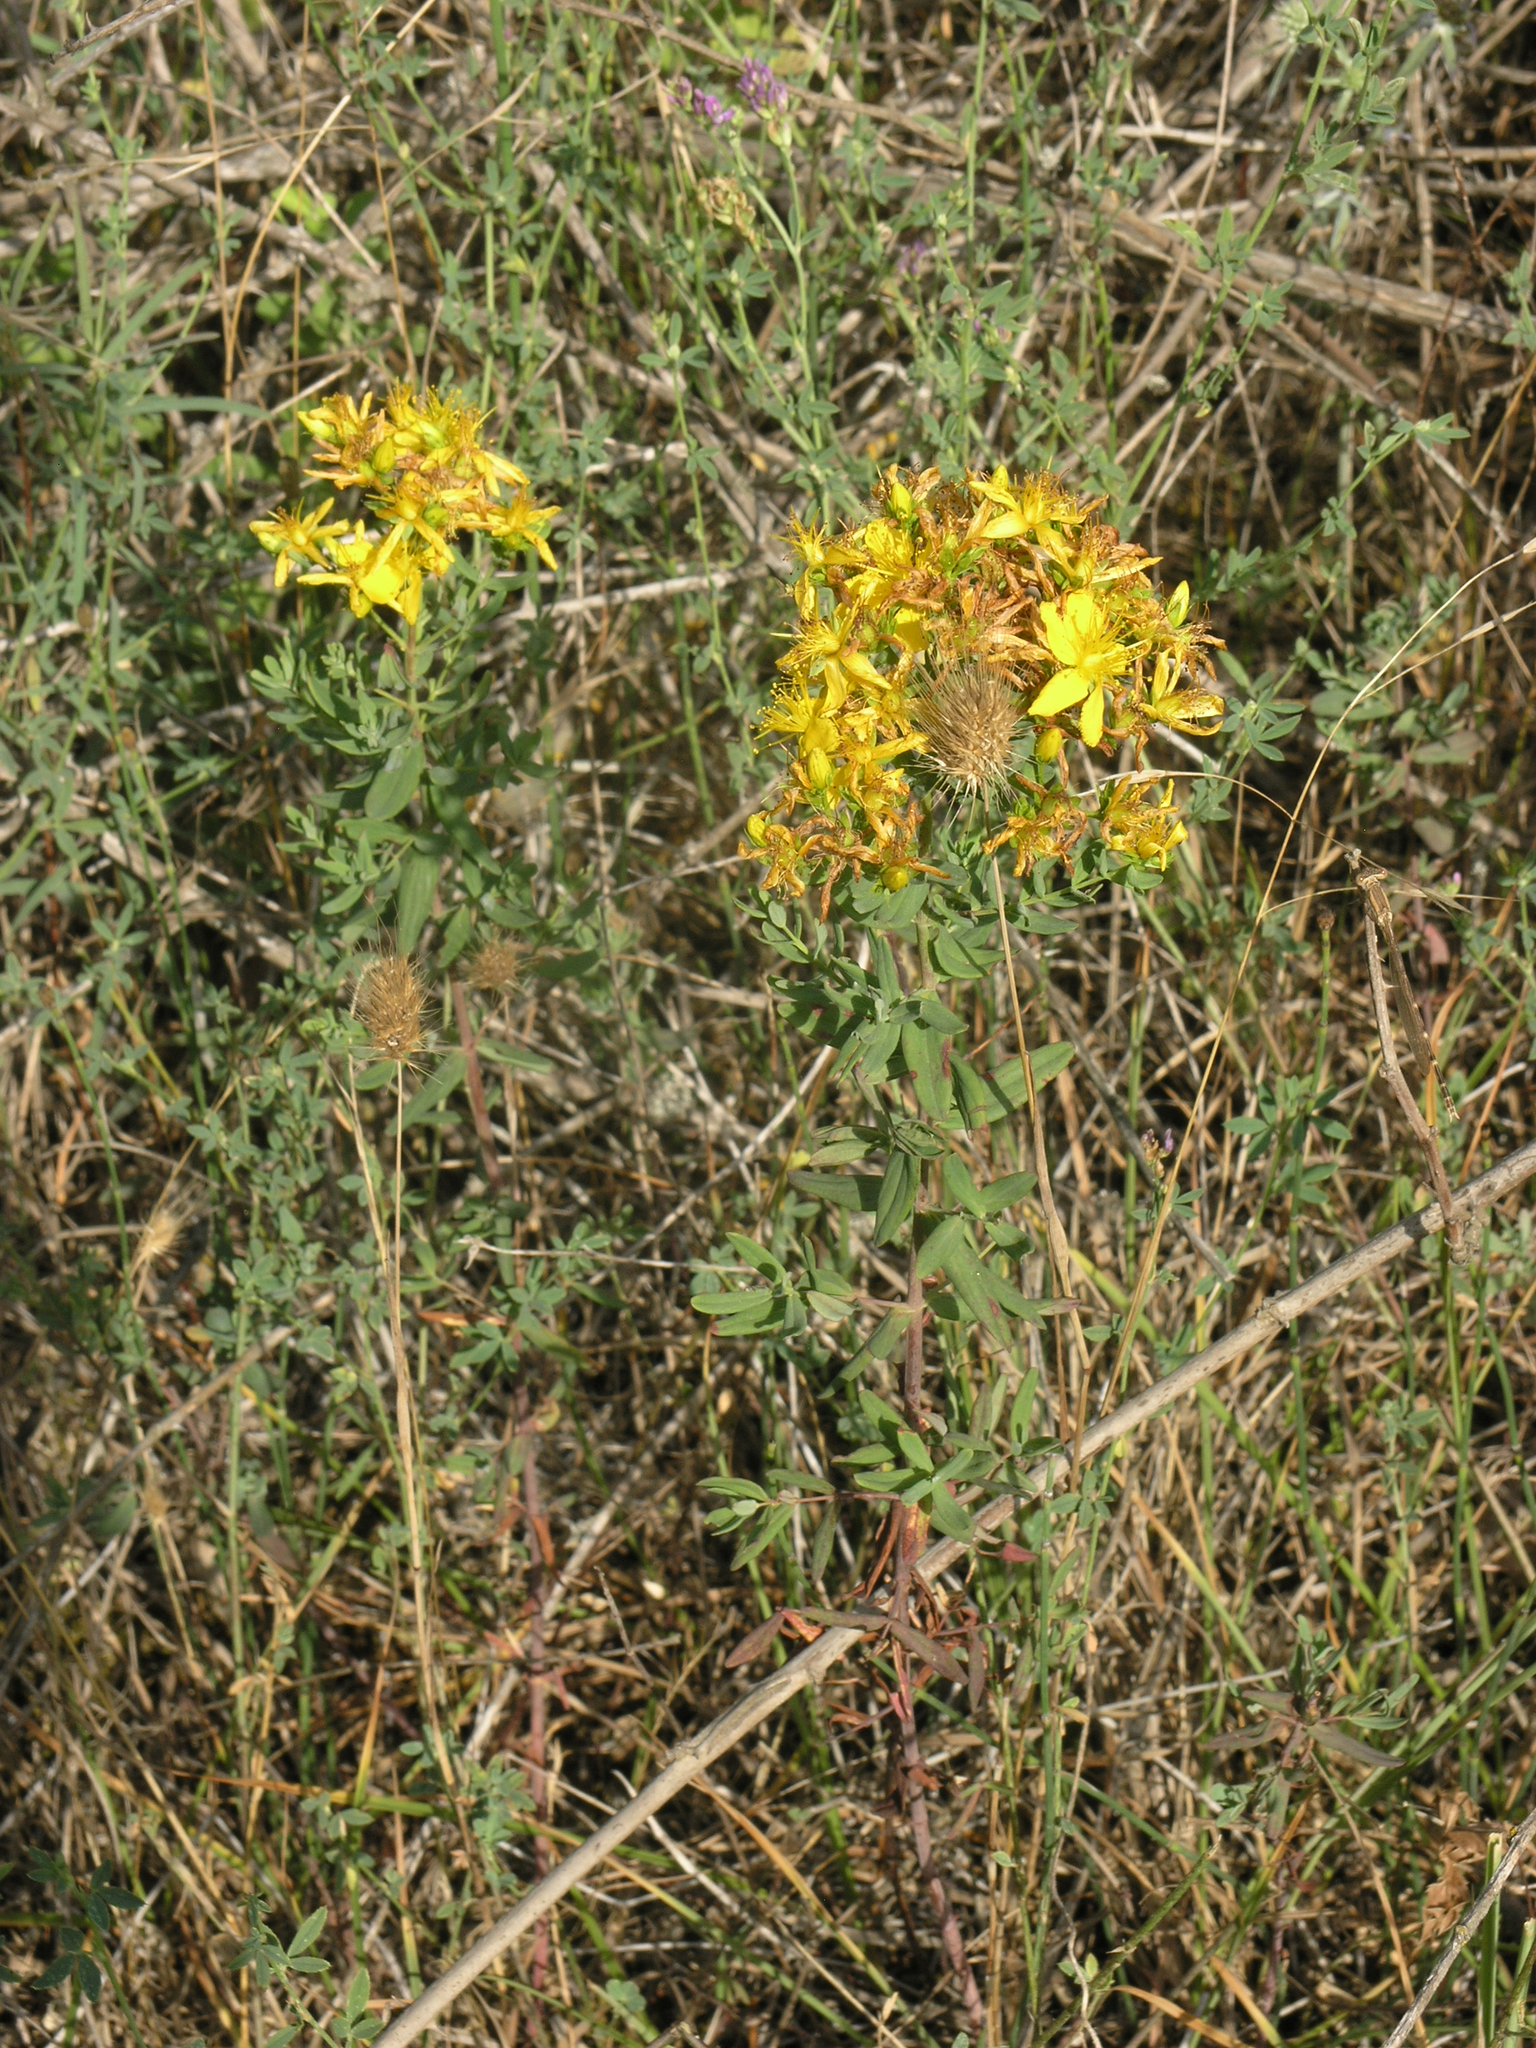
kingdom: Plantae
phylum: Tracheophyta
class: Magnoliopsida
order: Malpighiales
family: Hypericaceae
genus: Hypericum
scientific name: Hypericum perforatum
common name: Common st. johnswort
